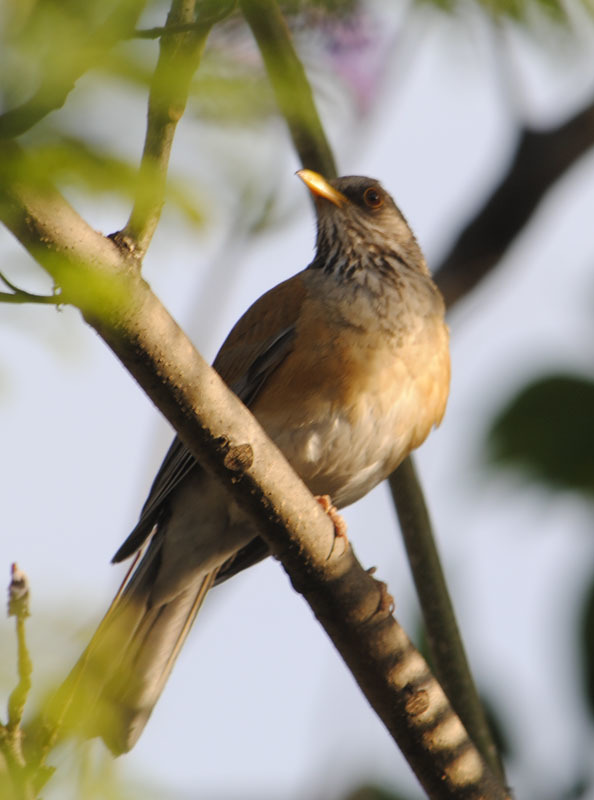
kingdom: Animalia
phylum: Chordata
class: Aves
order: Passeriformes
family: Turdidae
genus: Turdus
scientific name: Turdus rufopalliatus
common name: Rufous-backed robin
